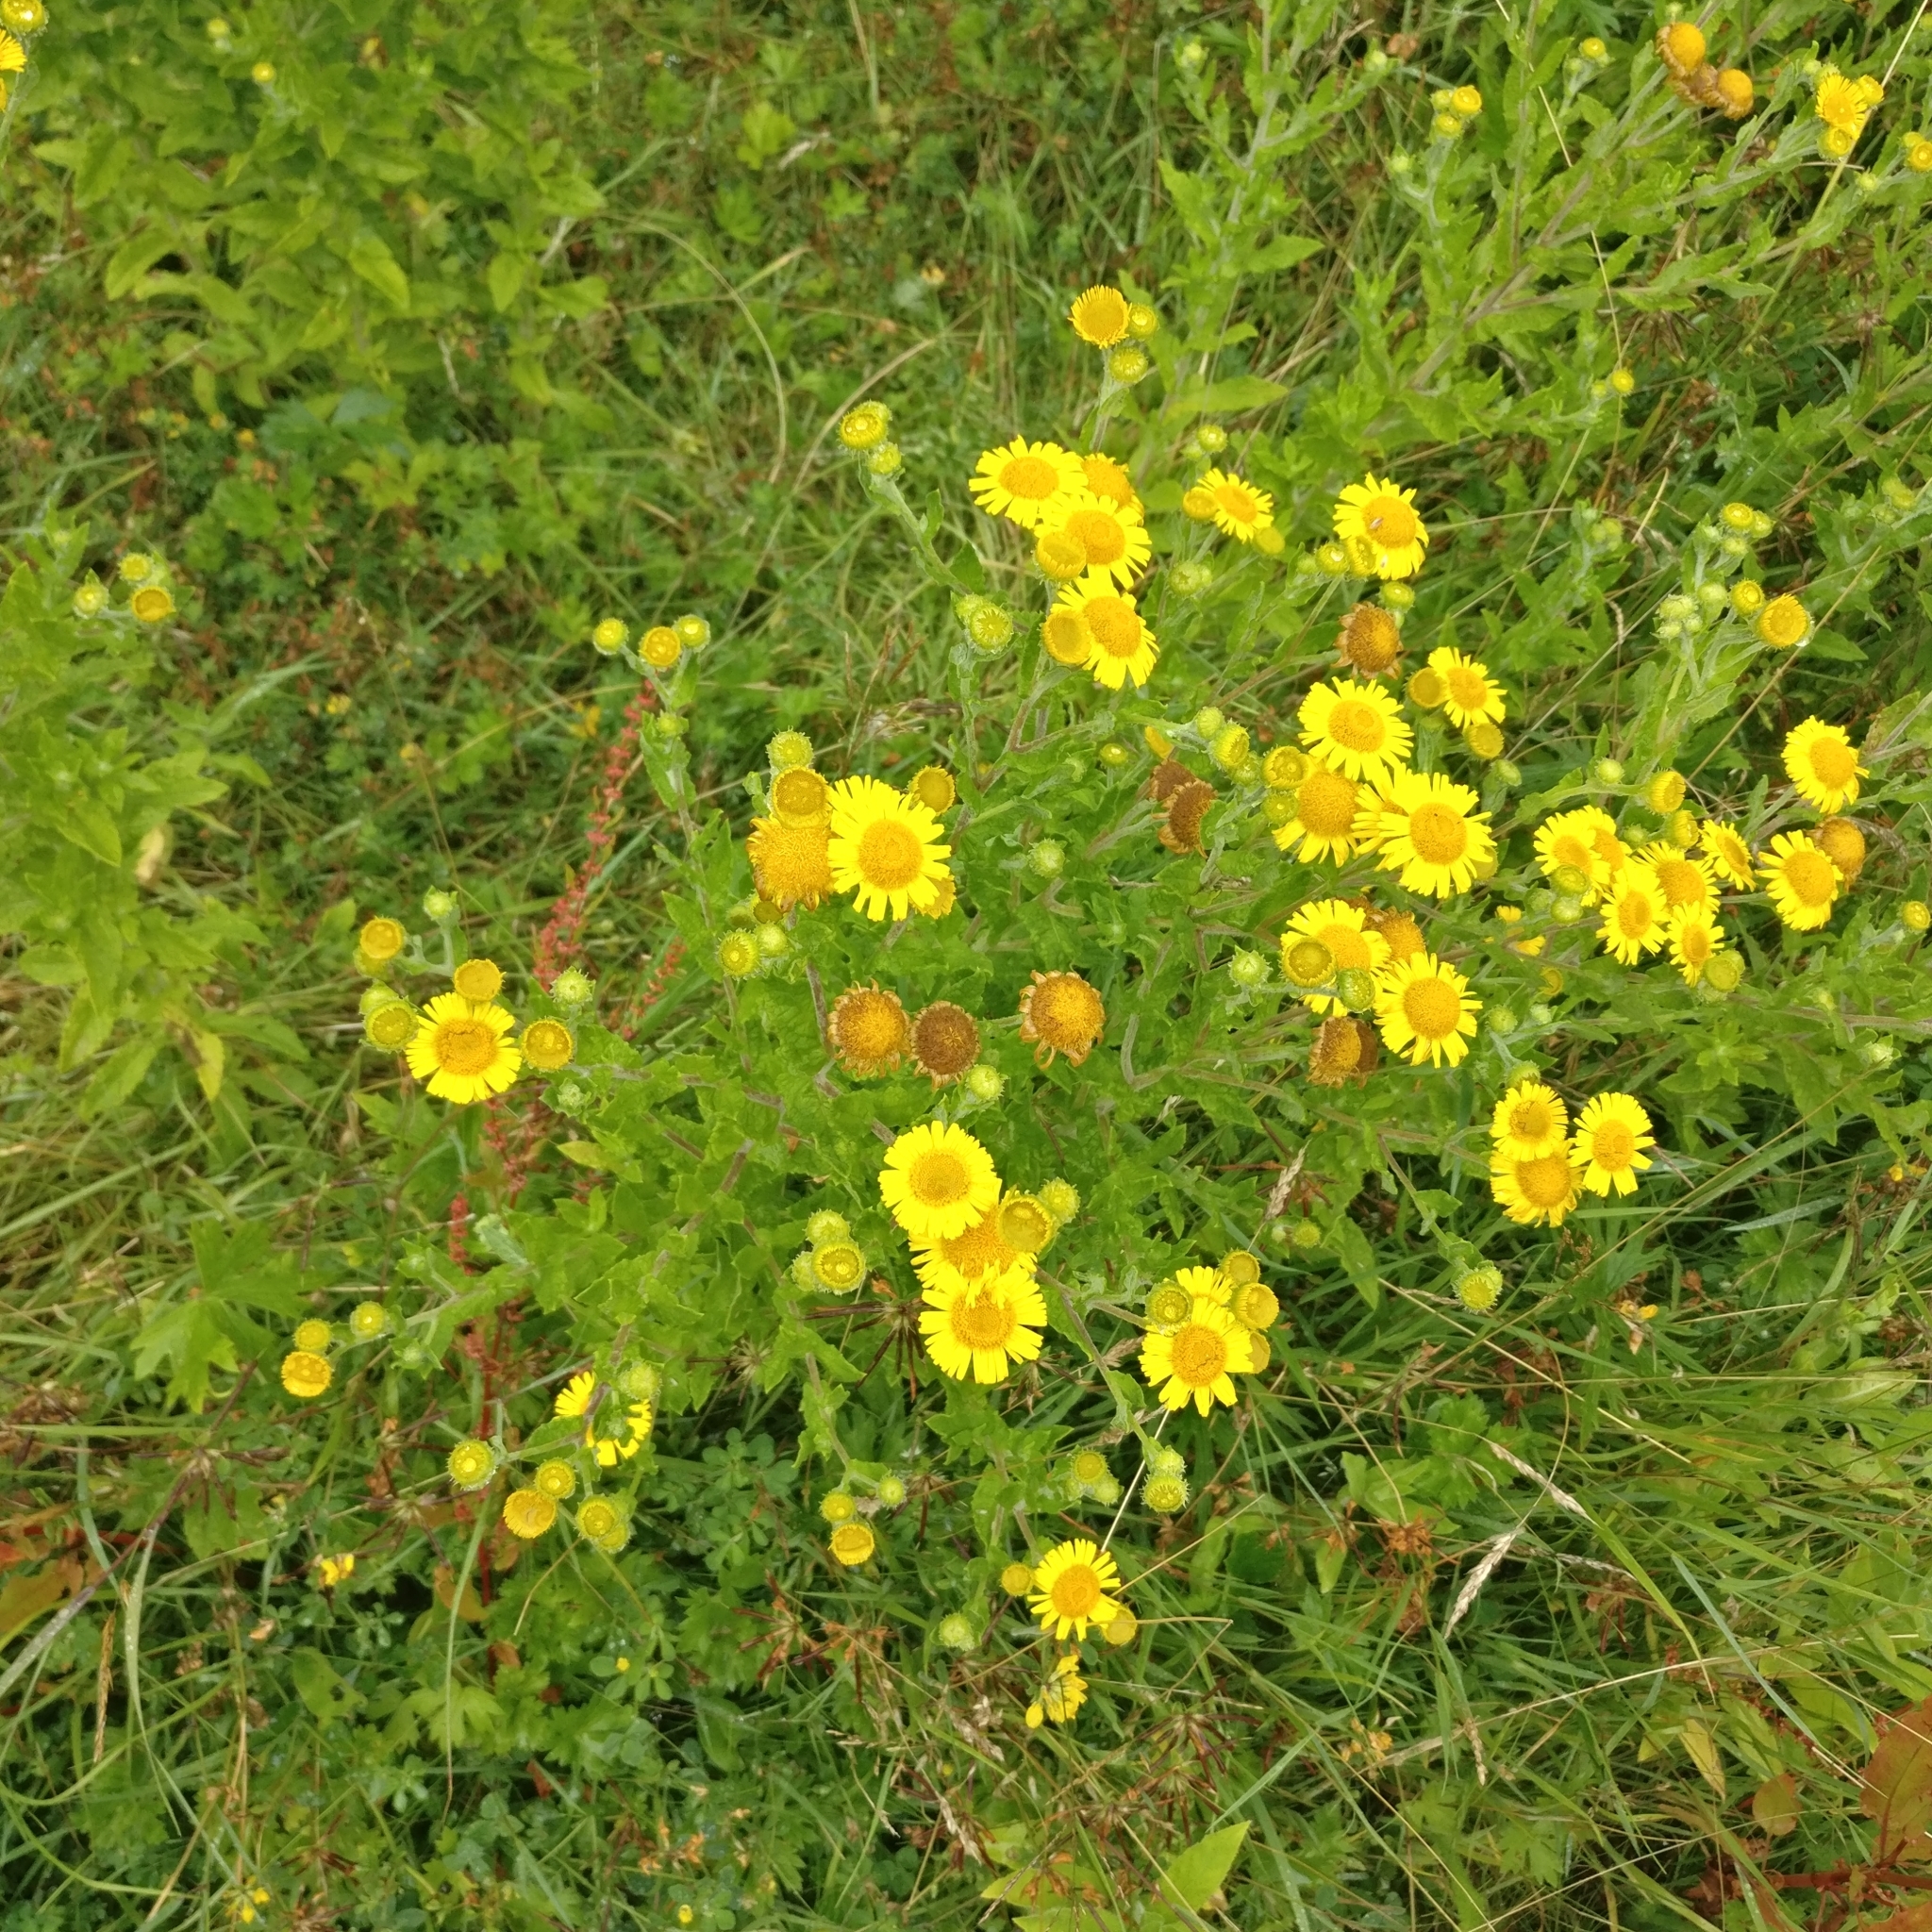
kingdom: Plantae
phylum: Tracheophyta
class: Magnoliopsida
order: Asterales
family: Asteraceae
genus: Pulicaria
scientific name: Pulicaria dysenterica
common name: Common fleabane
